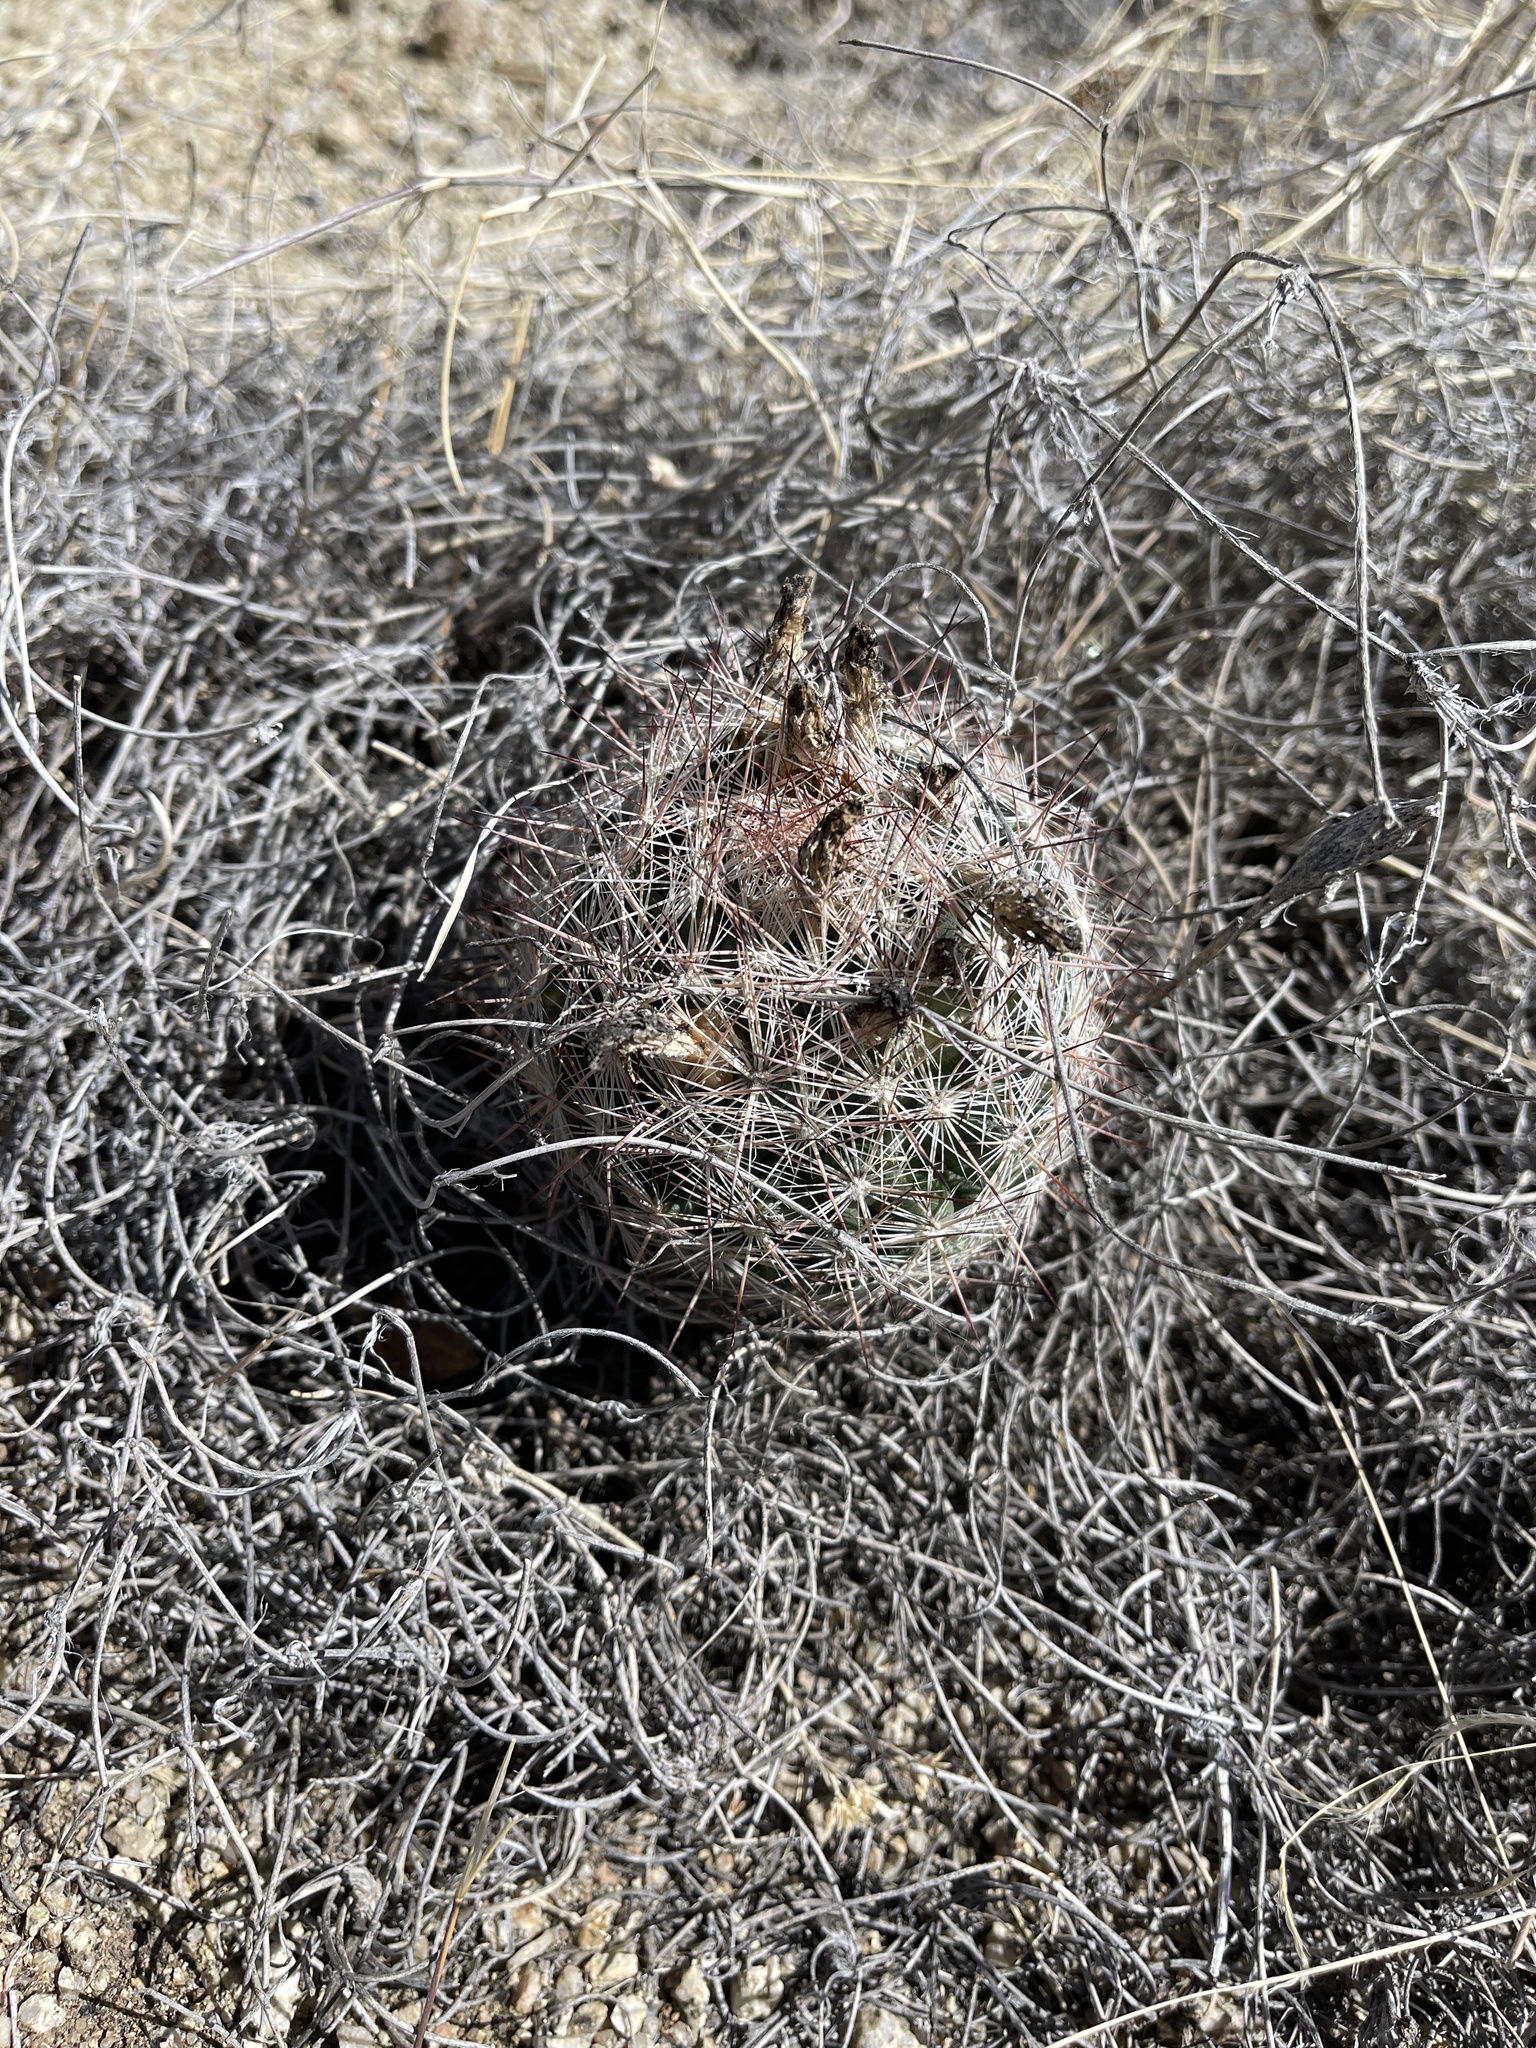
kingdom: Plantae
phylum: Tracheophyta
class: Magnoliopsida
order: Caryophyllales
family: Cactaceae
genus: Pelecyphora
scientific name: Pelecyphora vivipara
